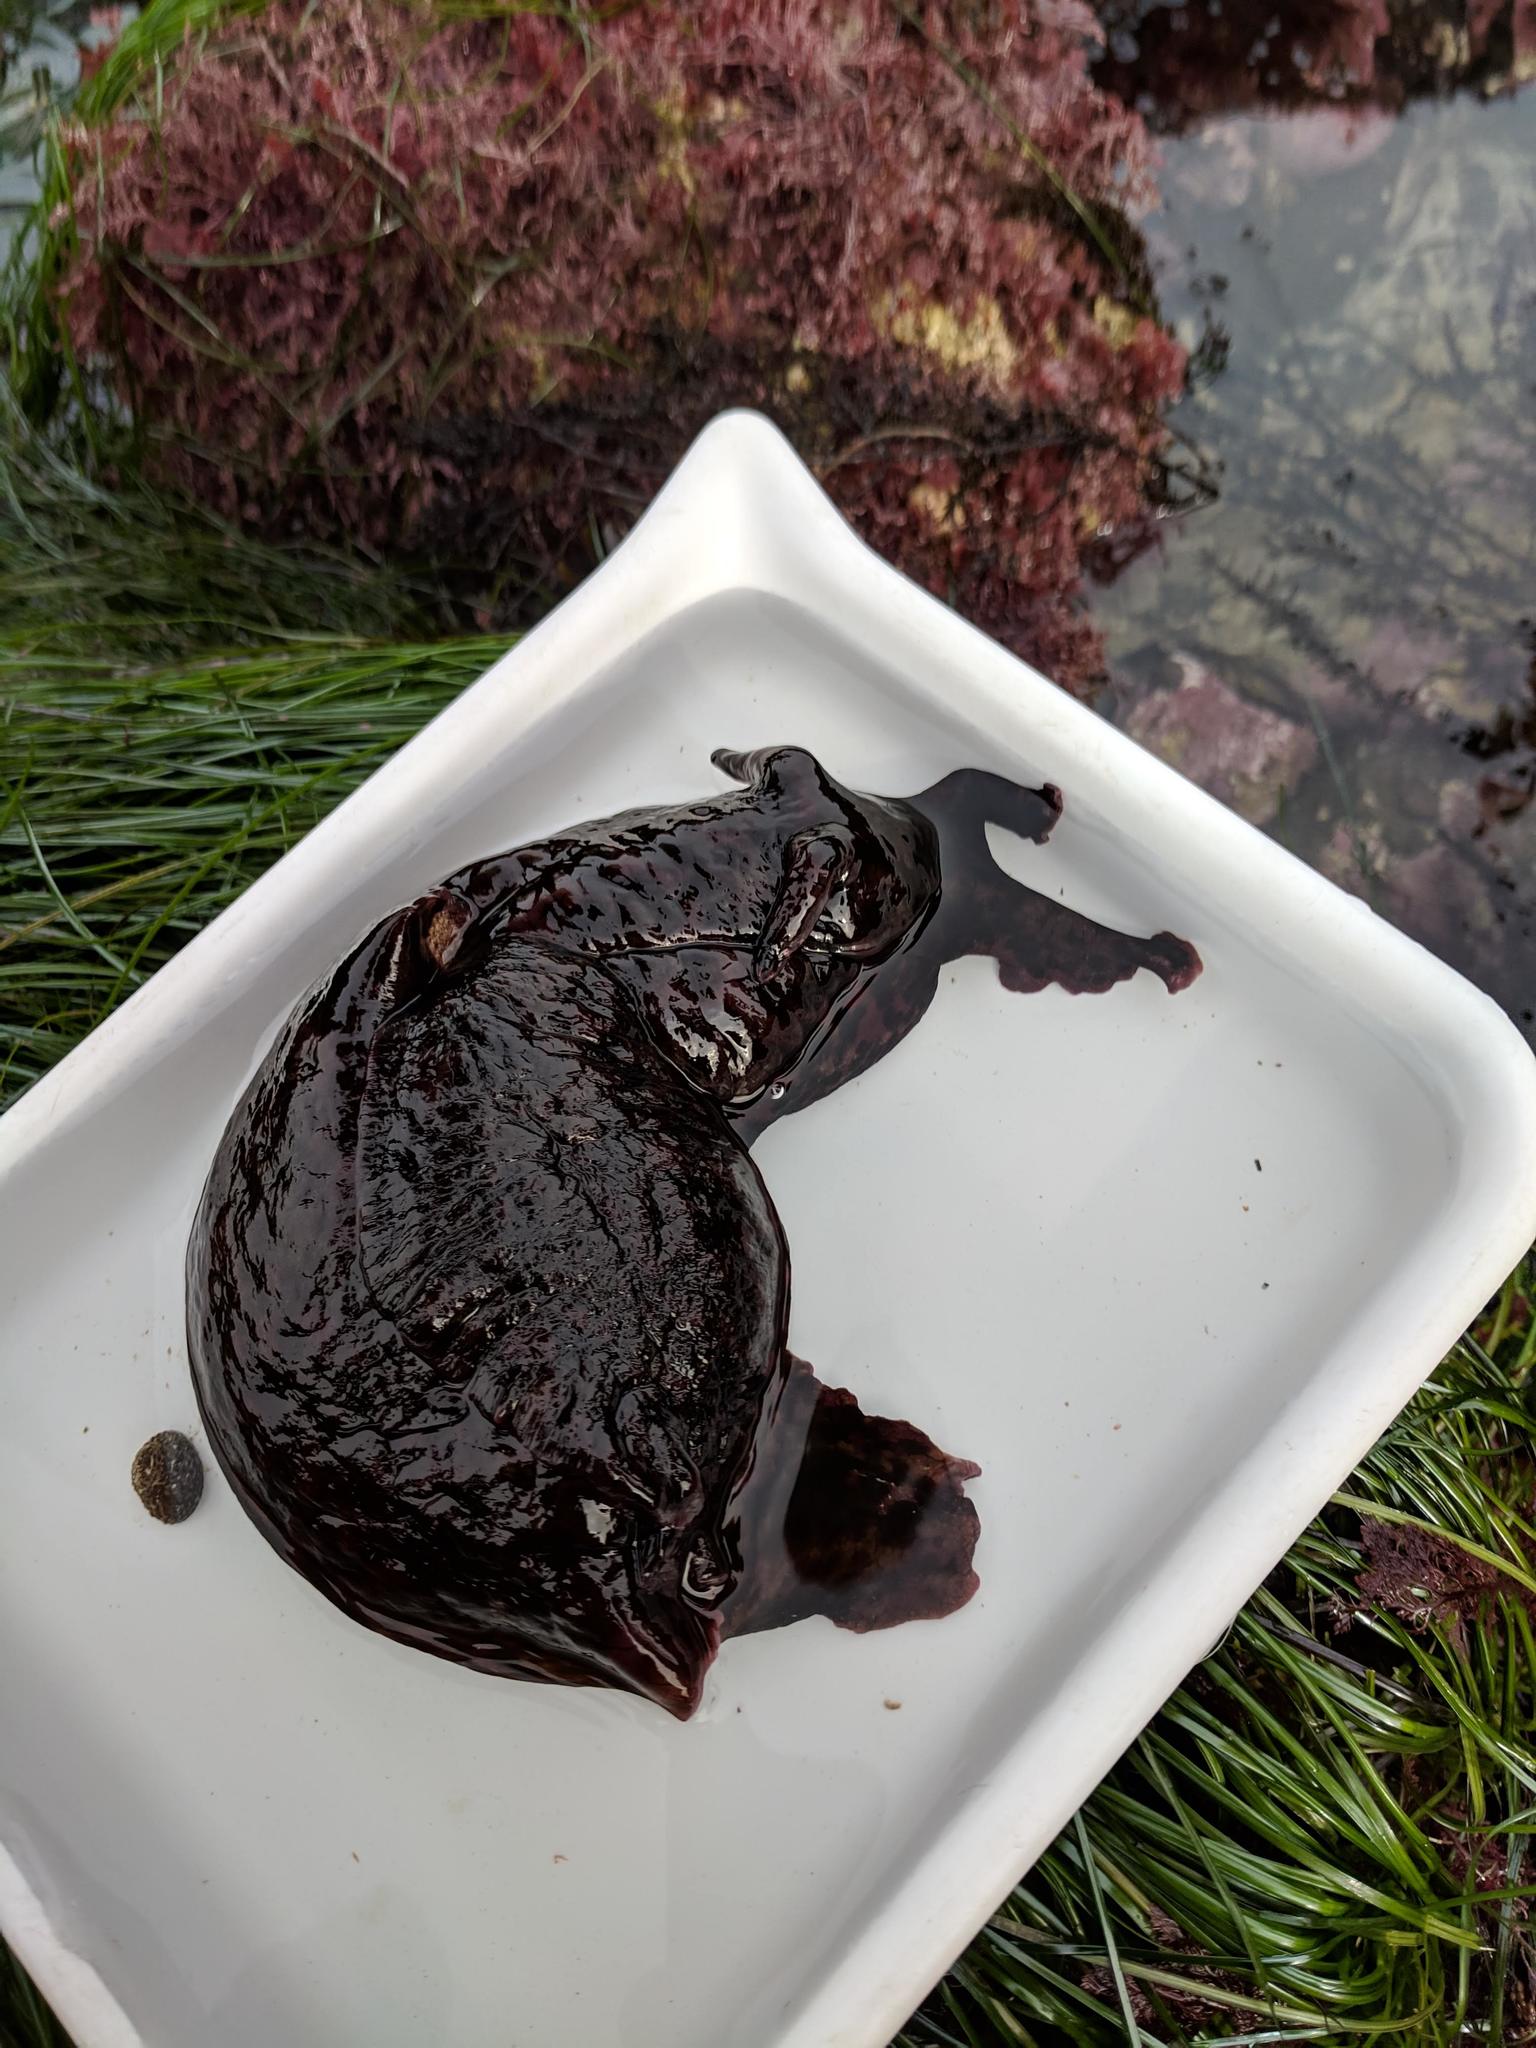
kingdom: Animalia
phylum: Mollusca
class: Gastropoda
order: Aplysiida
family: Aplysiidae
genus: Aplysia
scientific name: Aplysia californica
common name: California seahare
